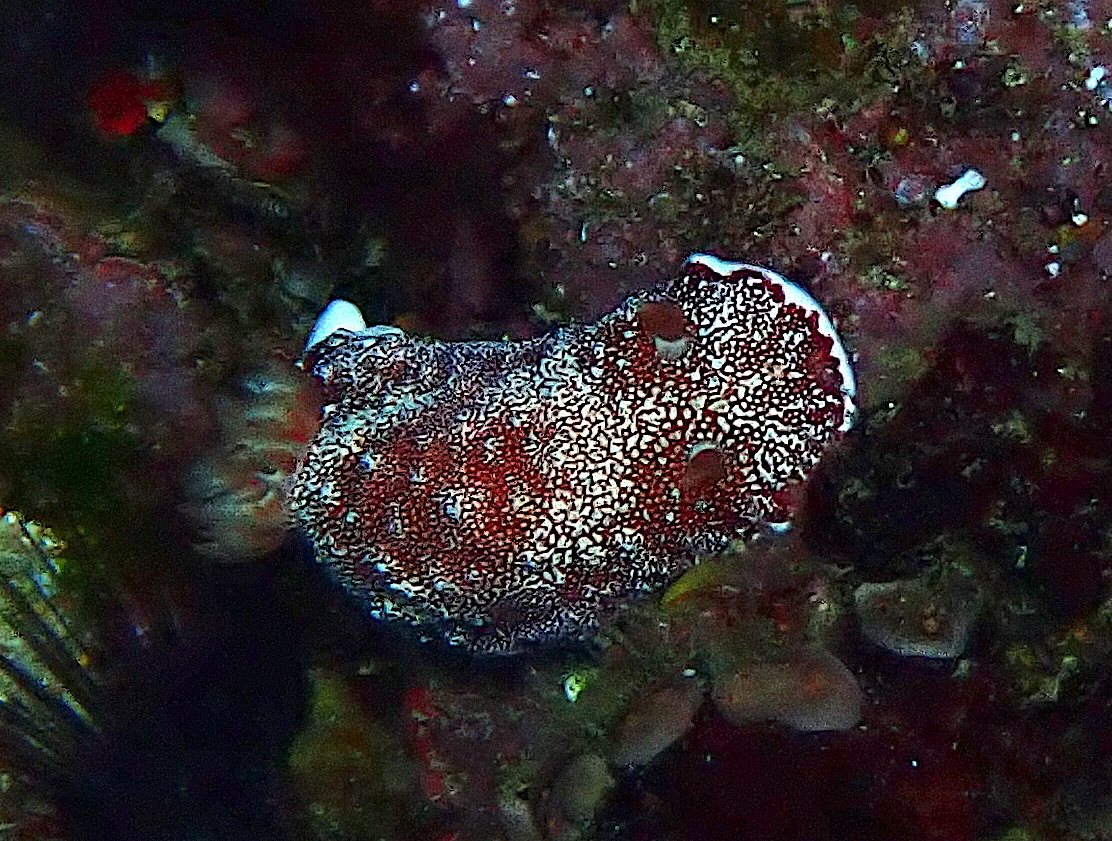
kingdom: Animalia
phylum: Mollusca
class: Gastropoda
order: Nudibranchia
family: Chromodorididae
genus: Goniobranchus
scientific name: Goniobranchus reticulatus
